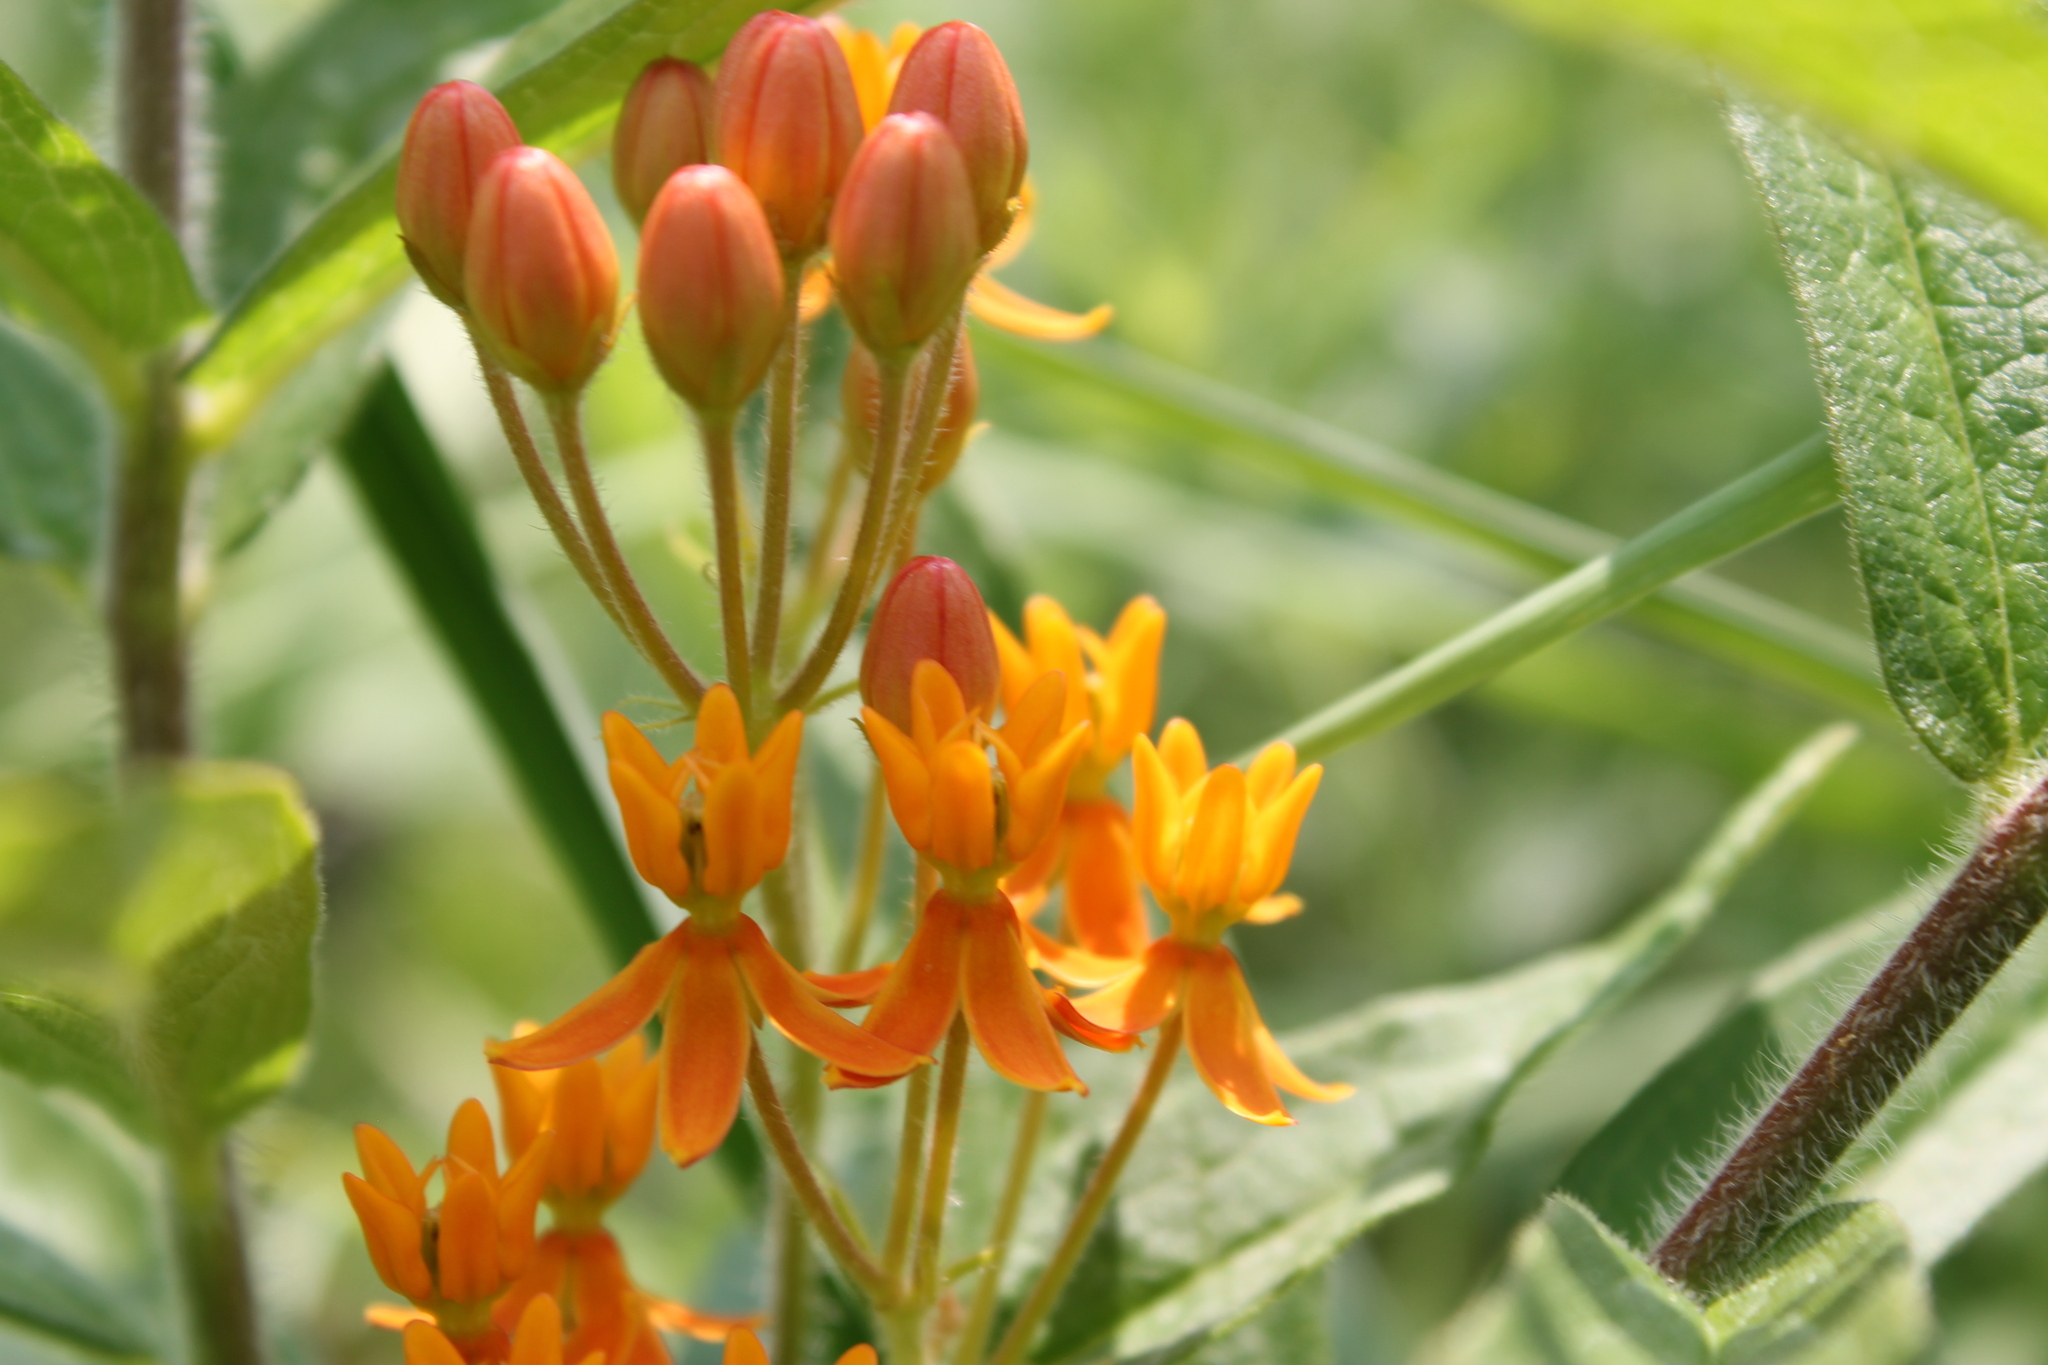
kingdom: Plantae
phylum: Tracheophyta
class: Magnoliopsida
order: Gentianales
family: Apocynaceae
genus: Asclepias
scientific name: Asclepias tuberosa
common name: Butterfly milkweed
